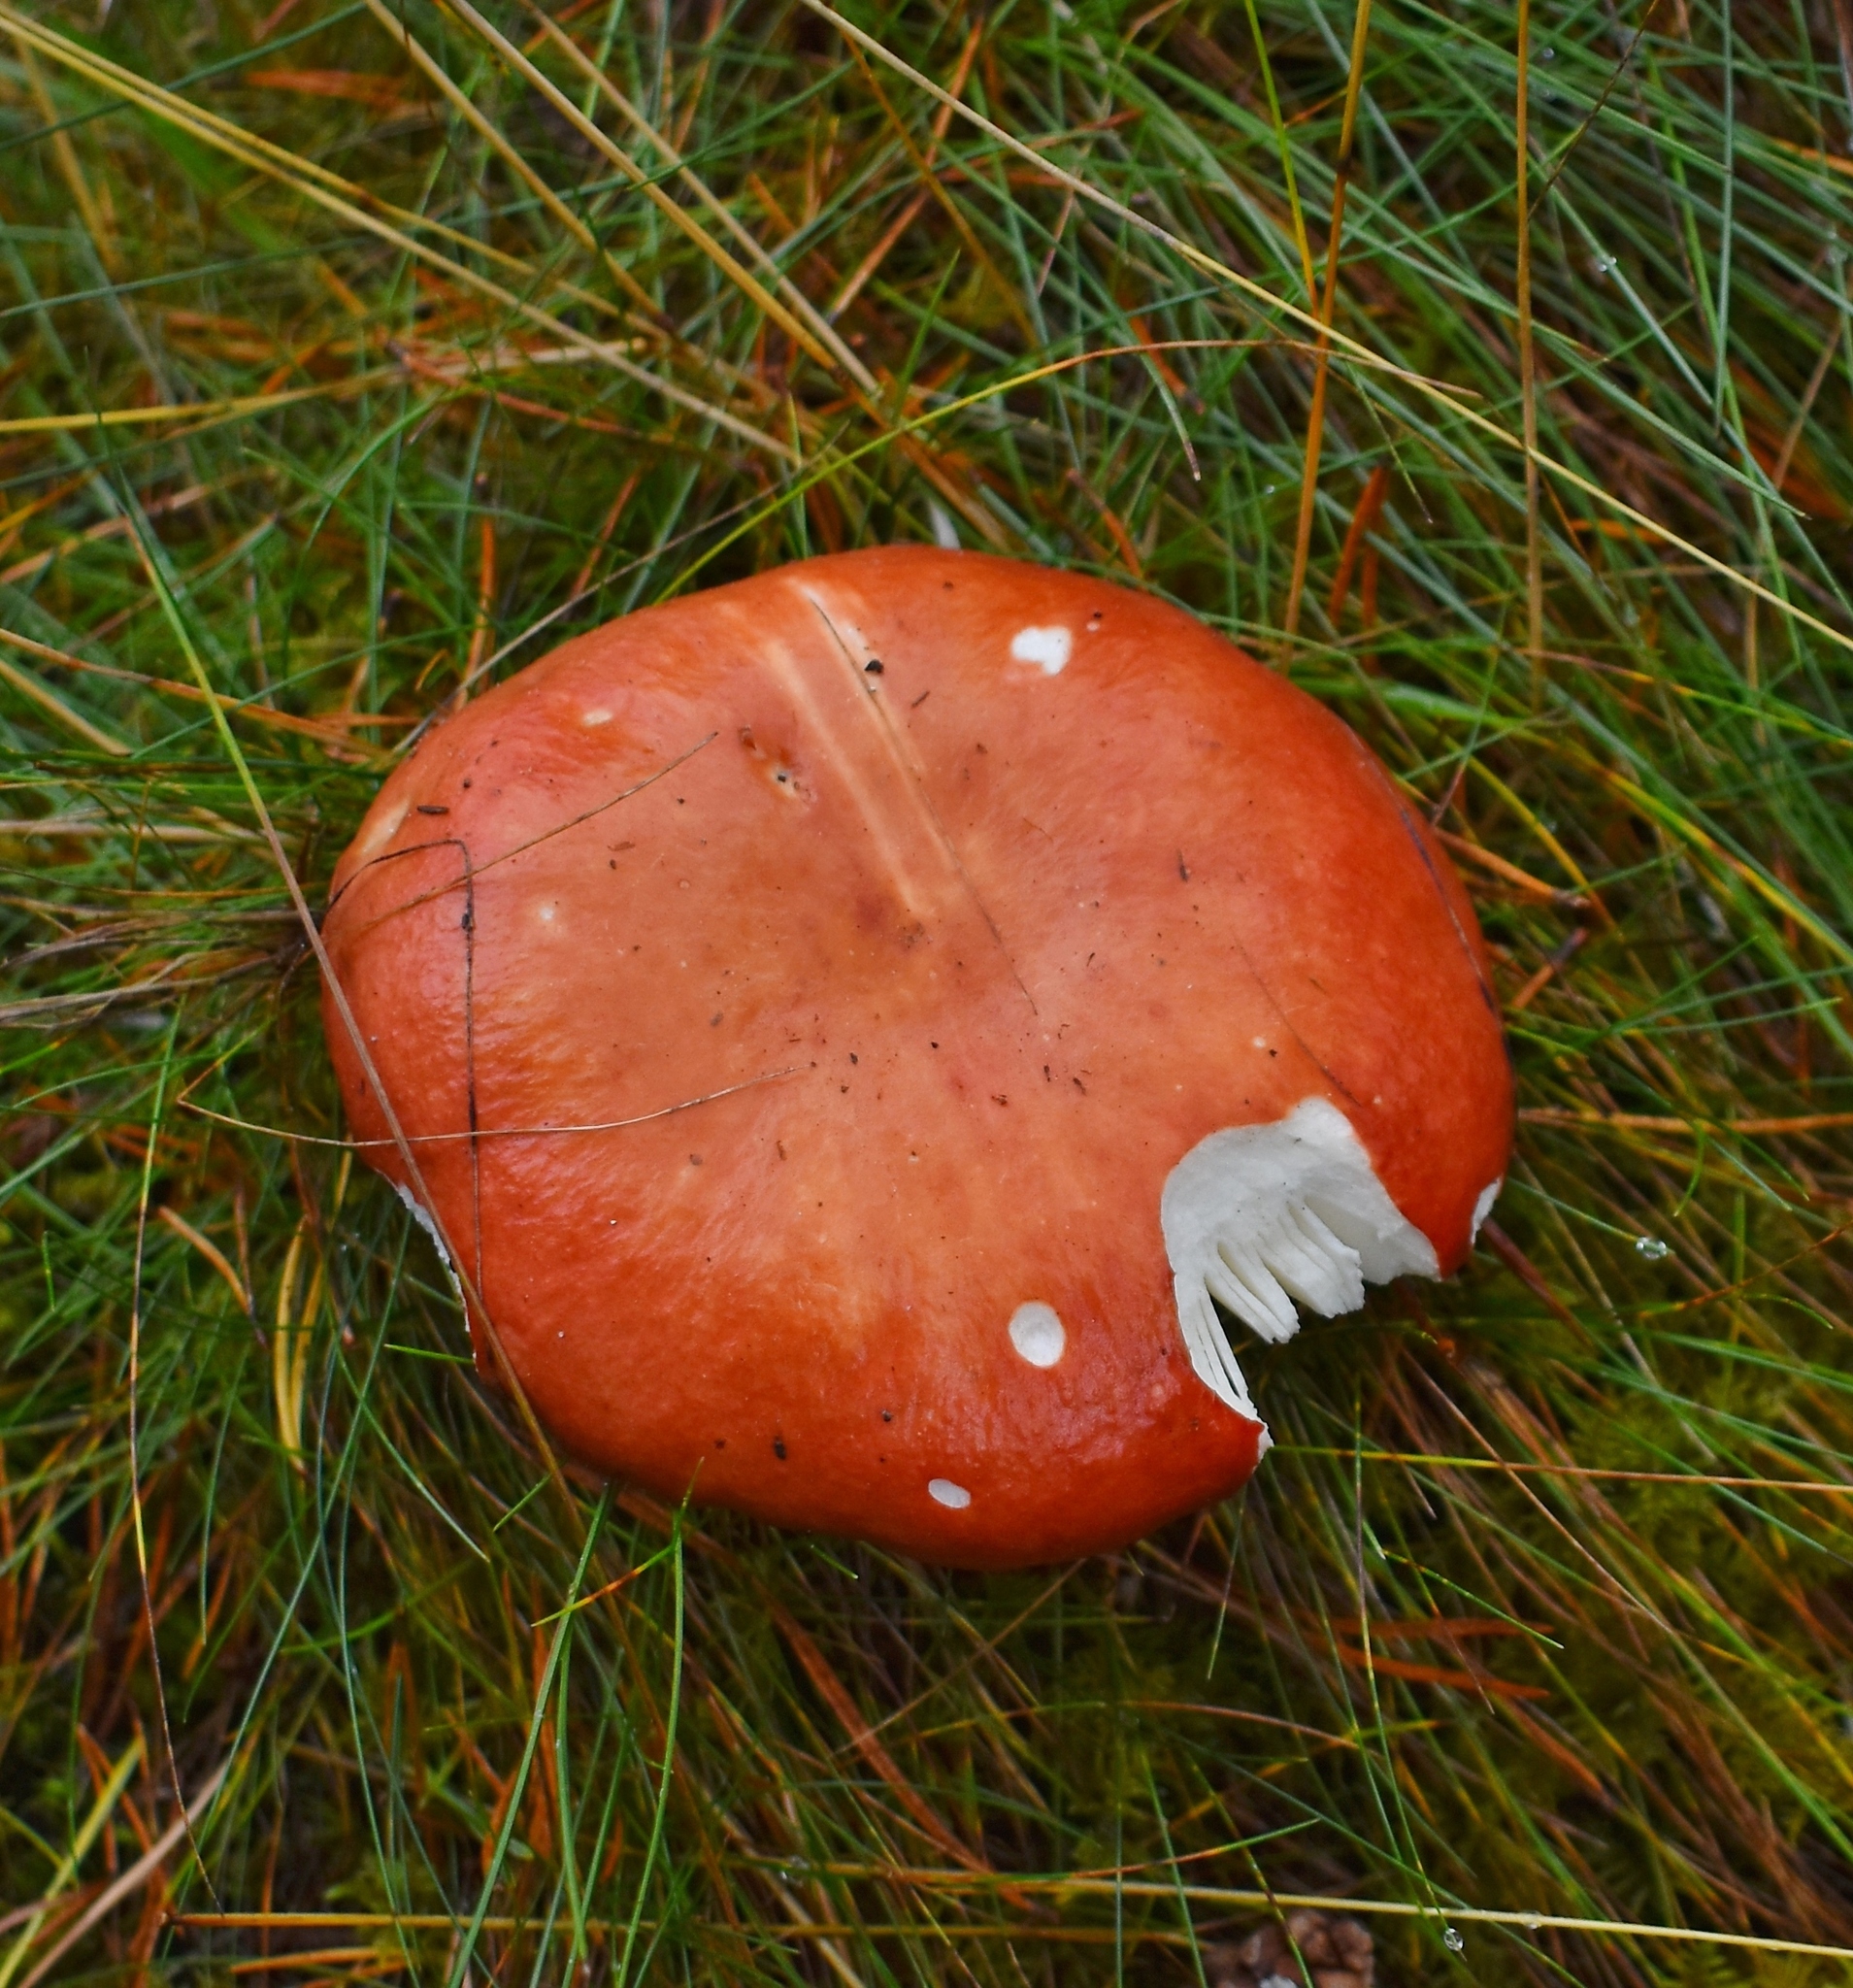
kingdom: Fungi
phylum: Basidiomycota
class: Agaricomycetes
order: Russulales
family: Russulaceae
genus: Russula
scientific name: Russula
